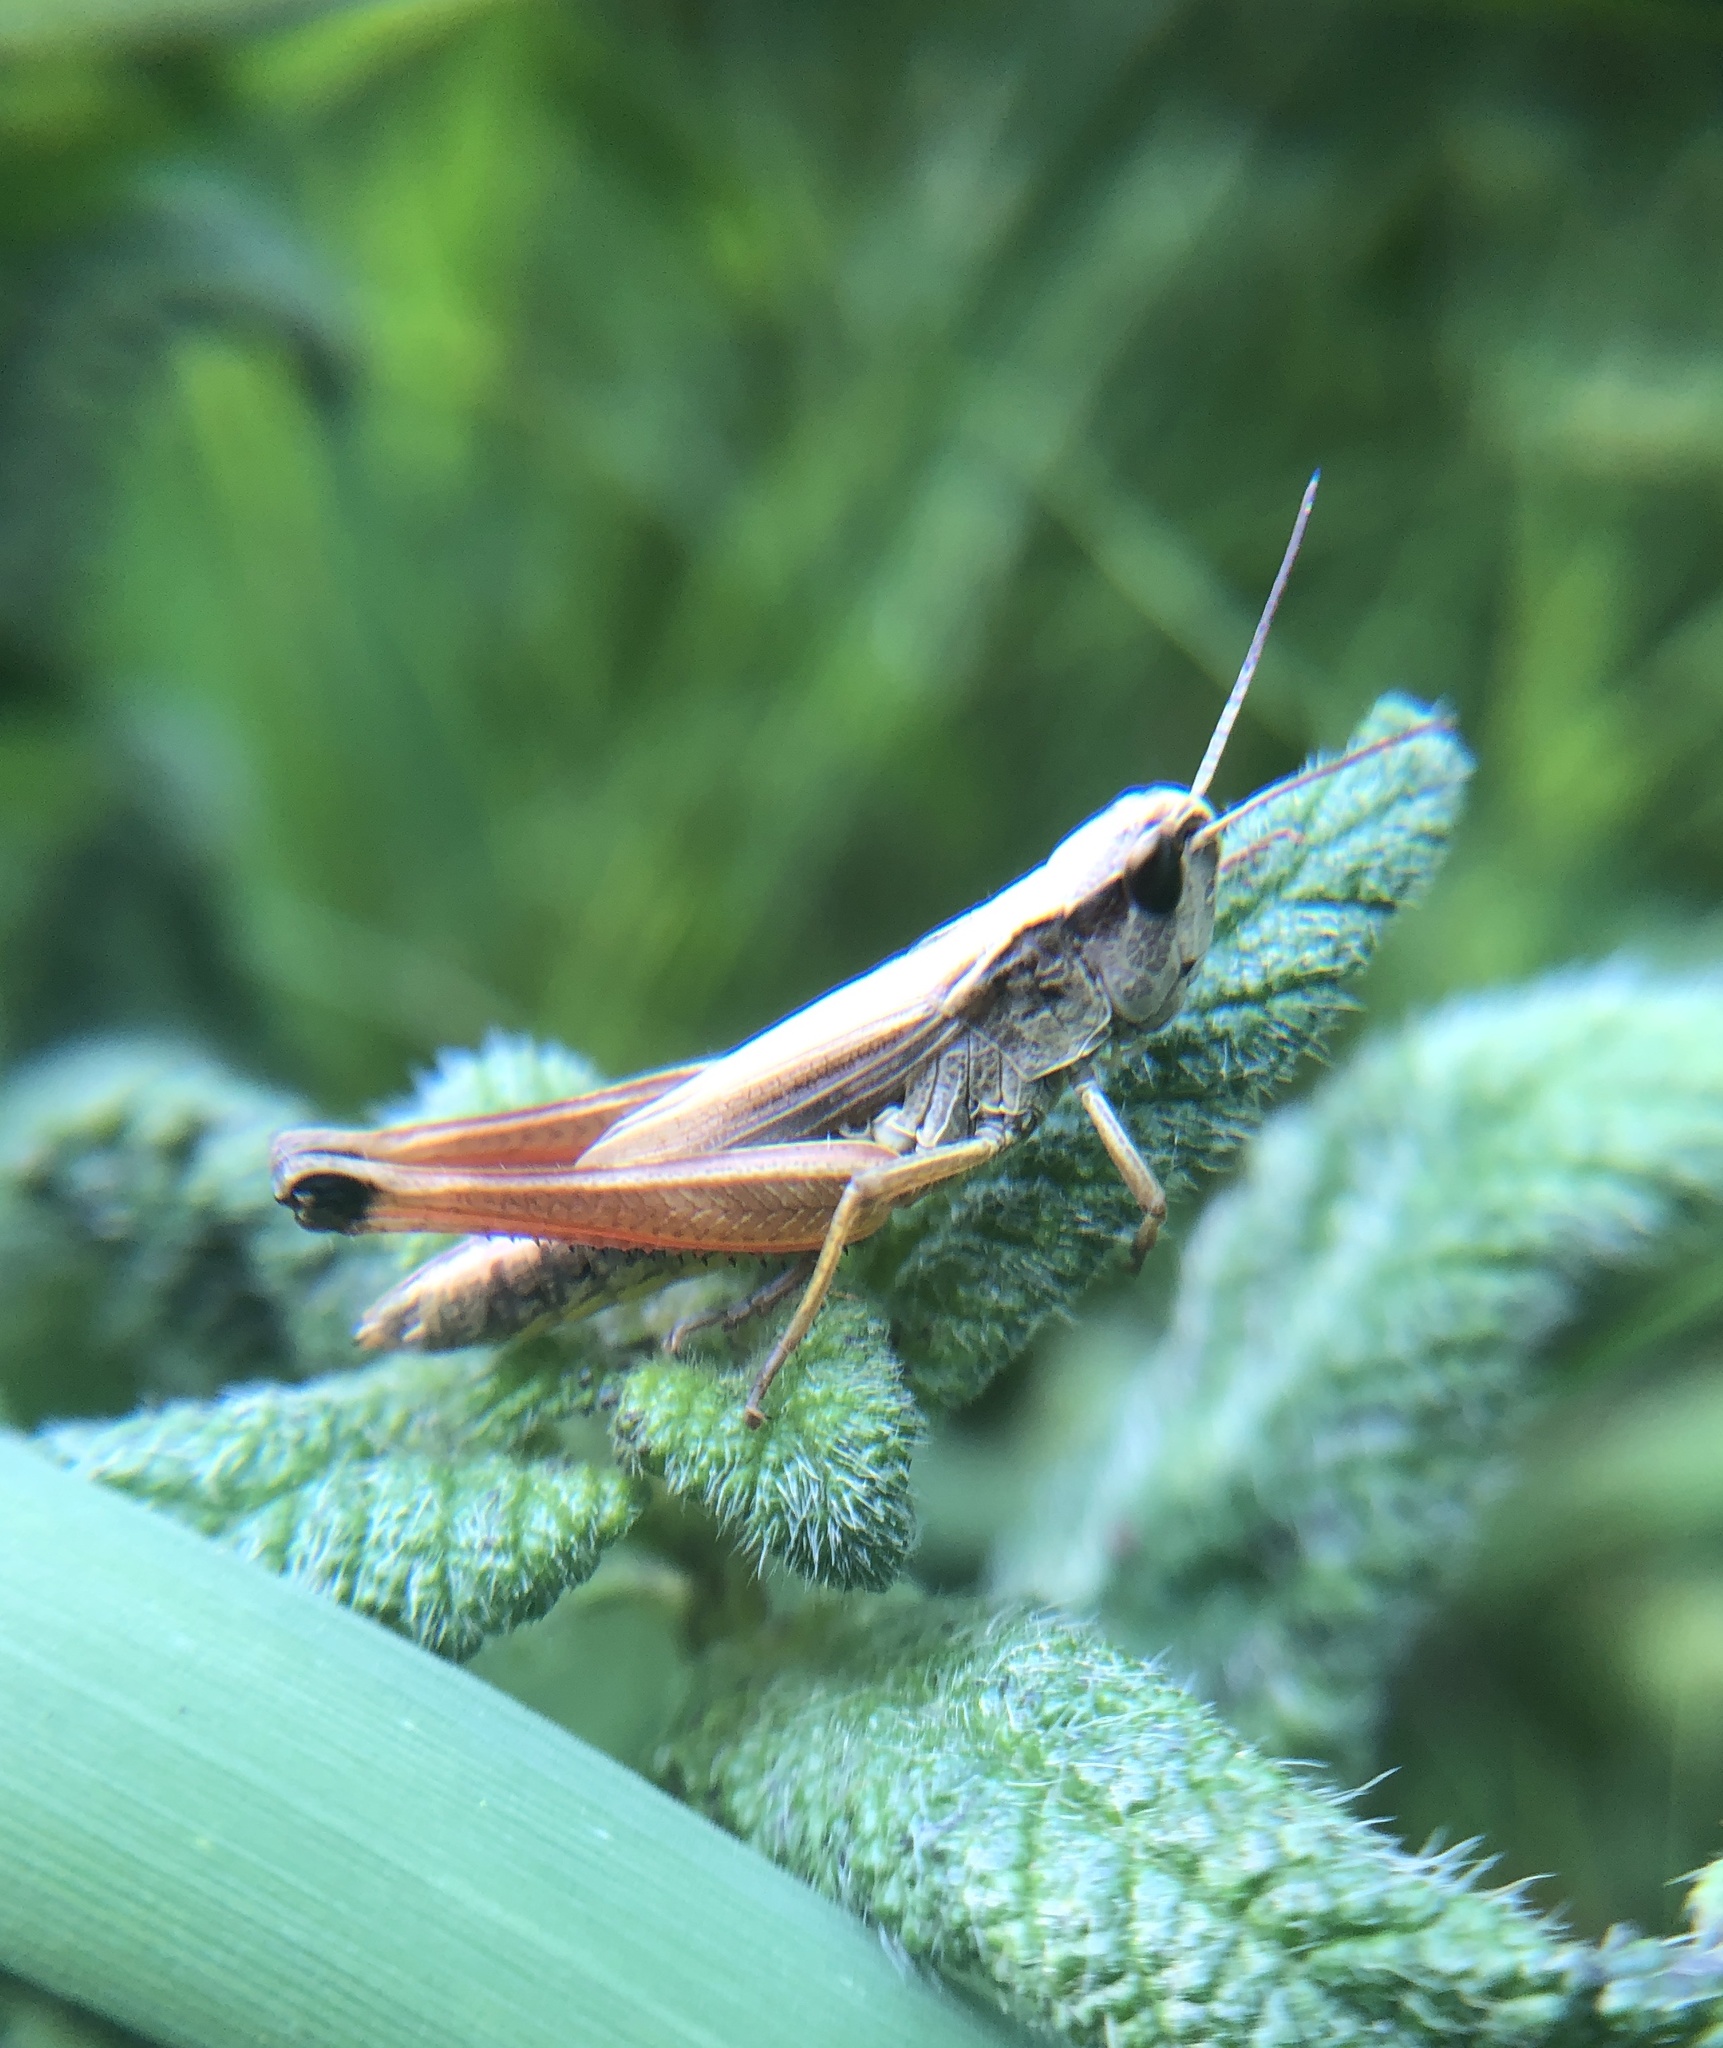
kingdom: Animalia
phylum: Arthropoda
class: Insecta
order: Orthoptera
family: Acrididae
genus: Pseudochorthippus
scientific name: Pseudochorthippus curtipennis
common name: Marsh meadow grasshopper
